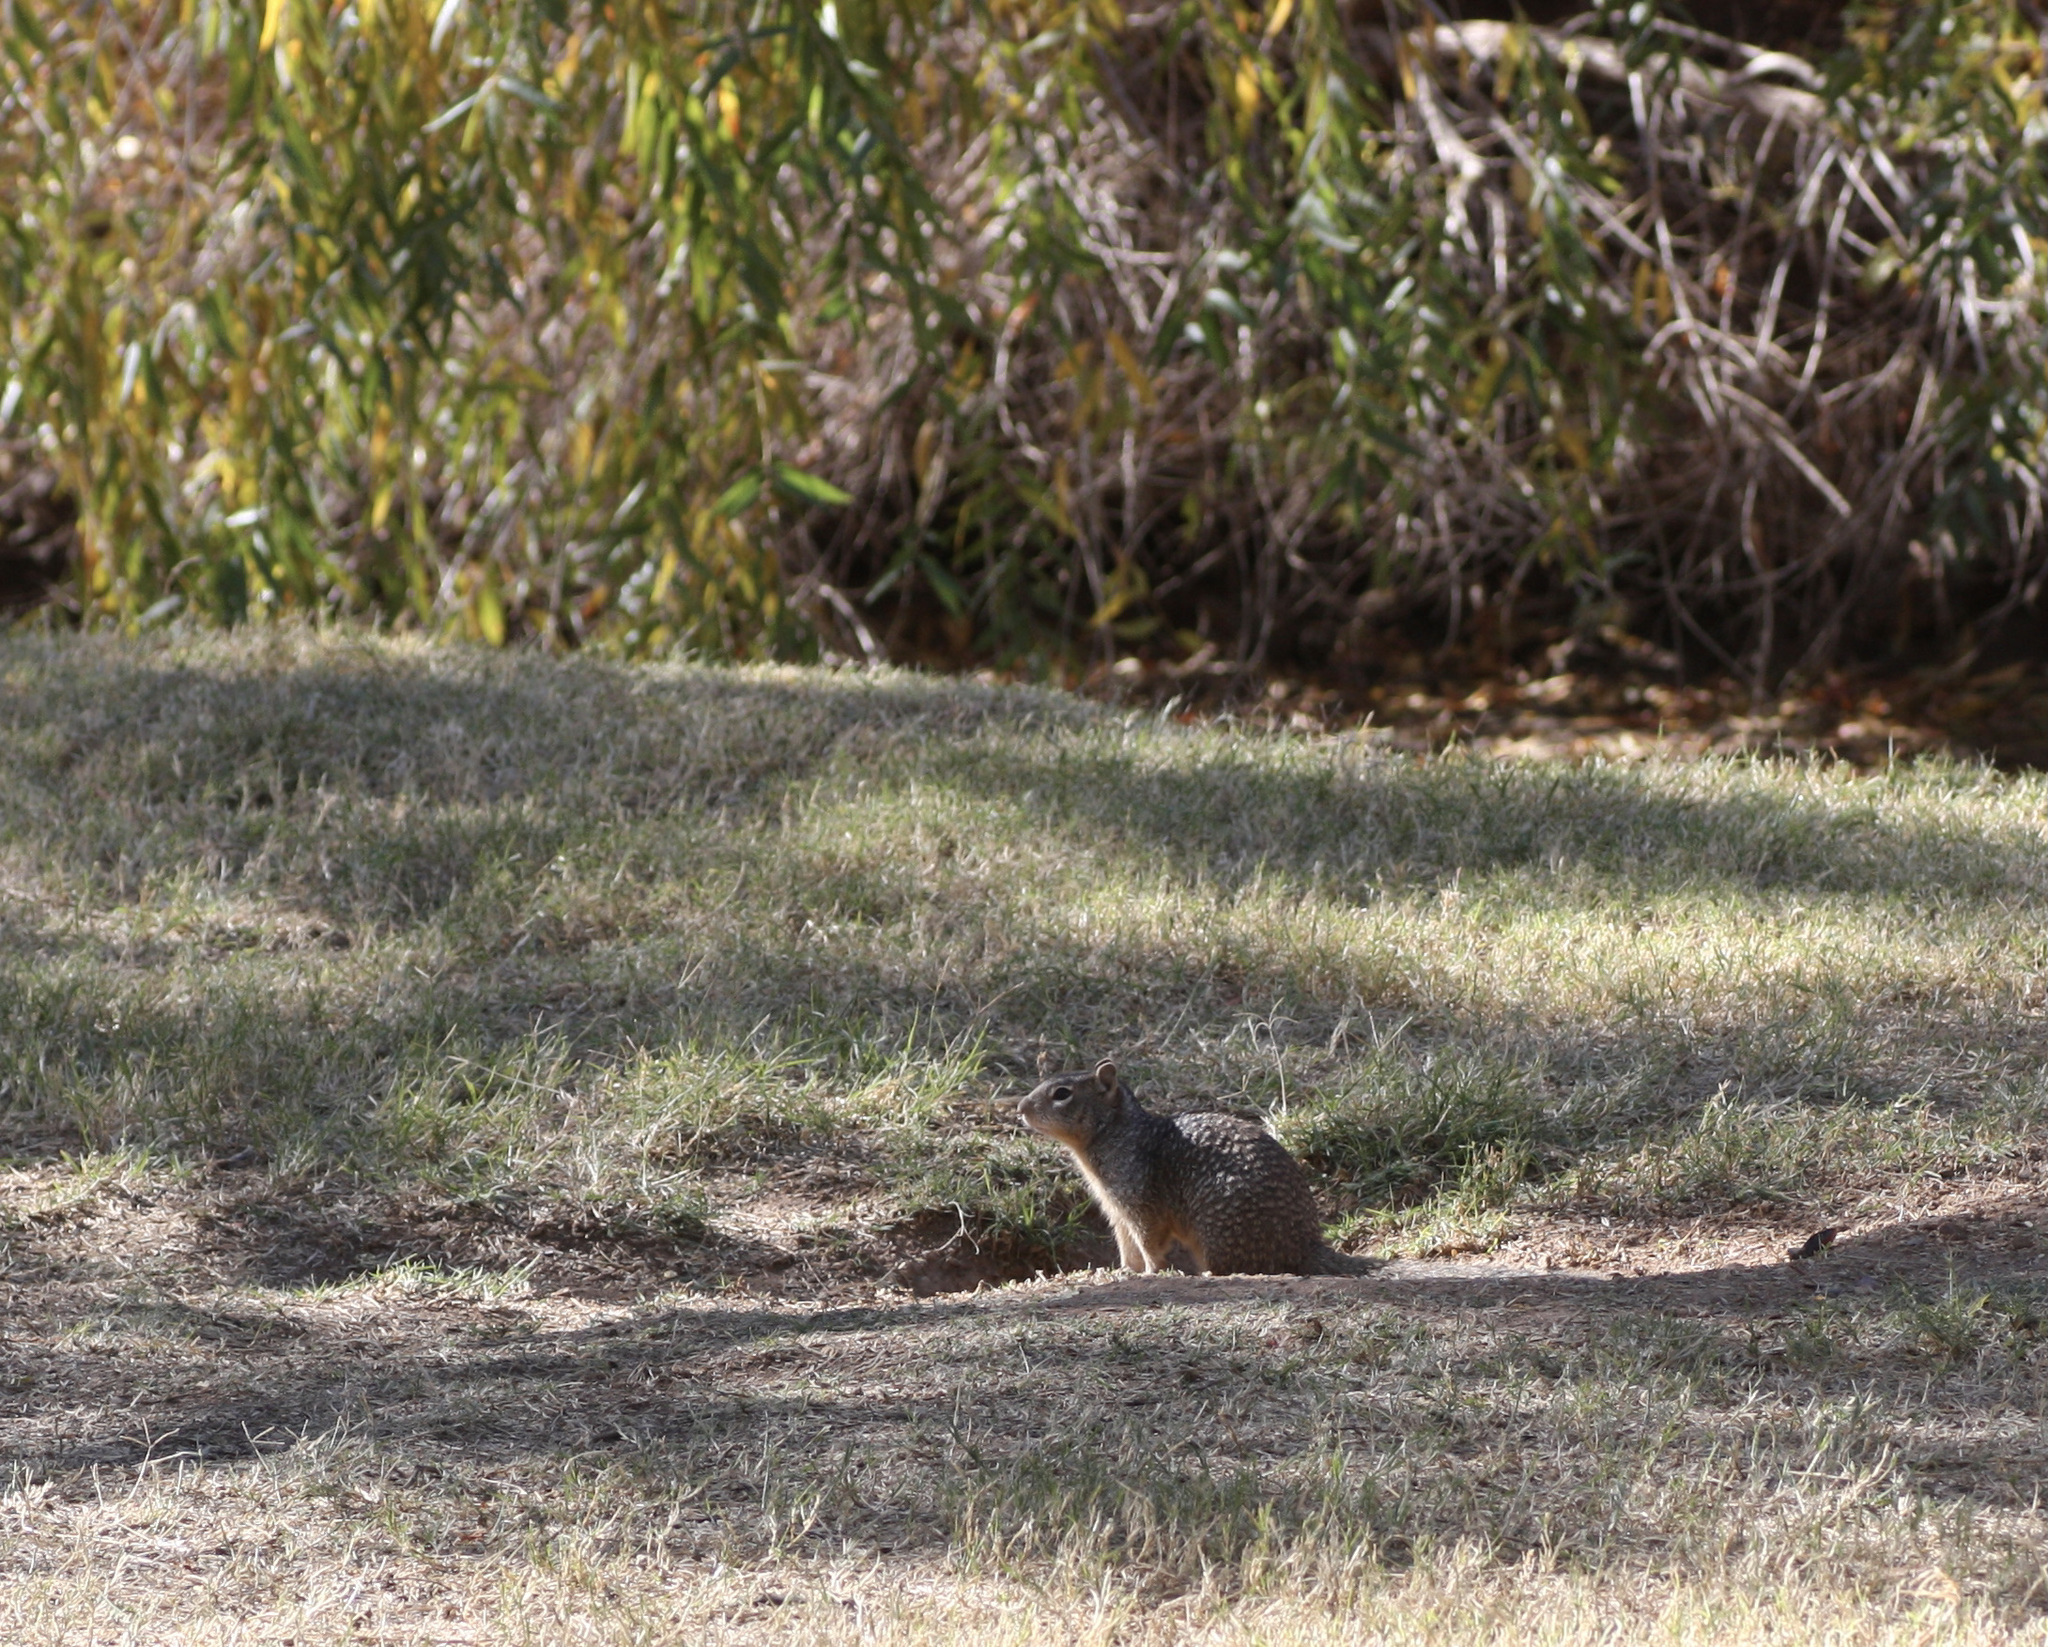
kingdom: Animalia
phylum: Chordata
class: Mammalia
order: Rodentia
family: Sciuridae
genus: Otospermophilus
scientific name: Otospermophilus variegatus
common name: Rock squirrel
